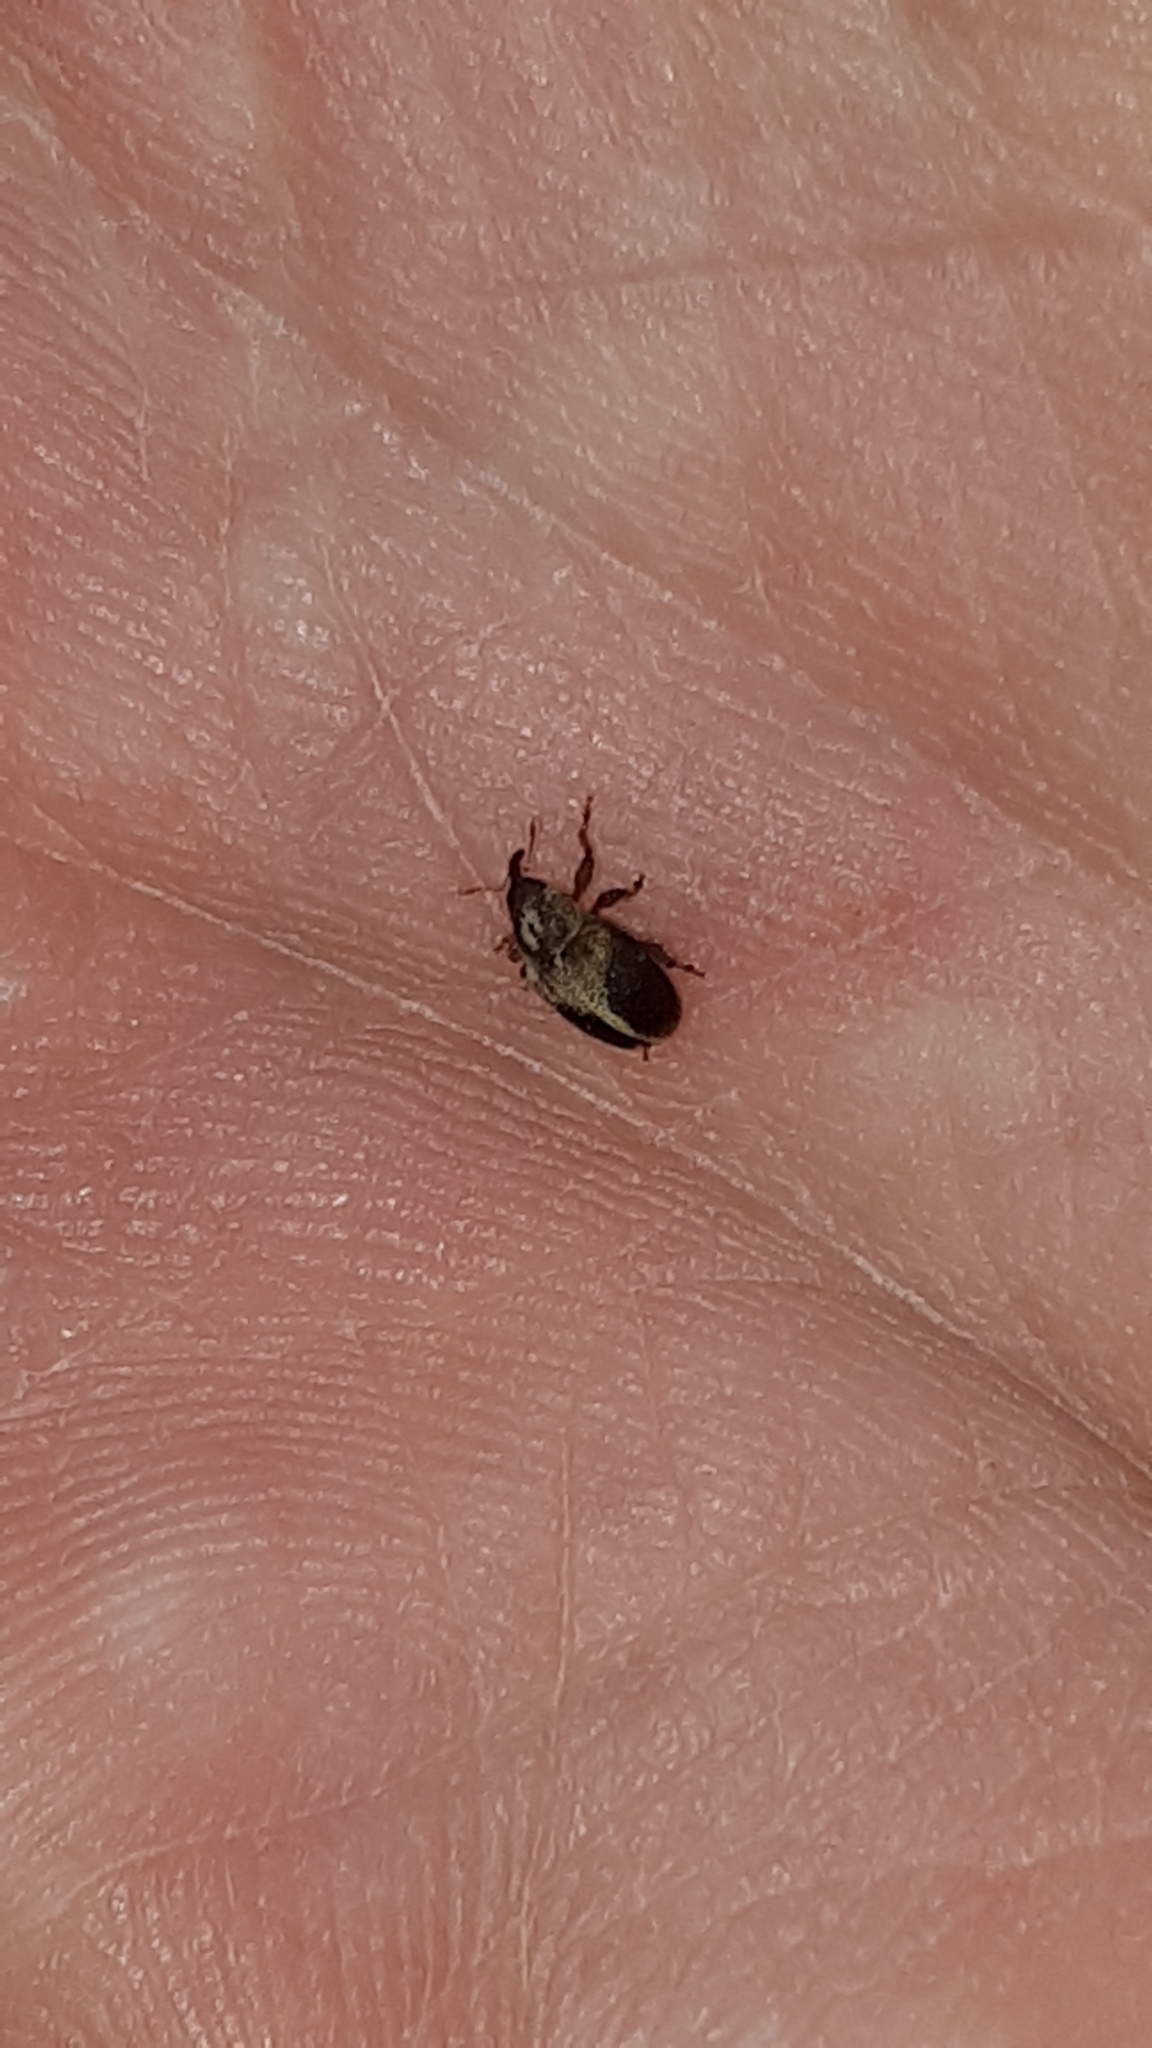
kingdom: Animalia
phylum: Arthropoda
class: Insecta
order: Coleoptera
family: Curculionidae
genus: Lignyodes
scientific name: Lignyodes enucleator
